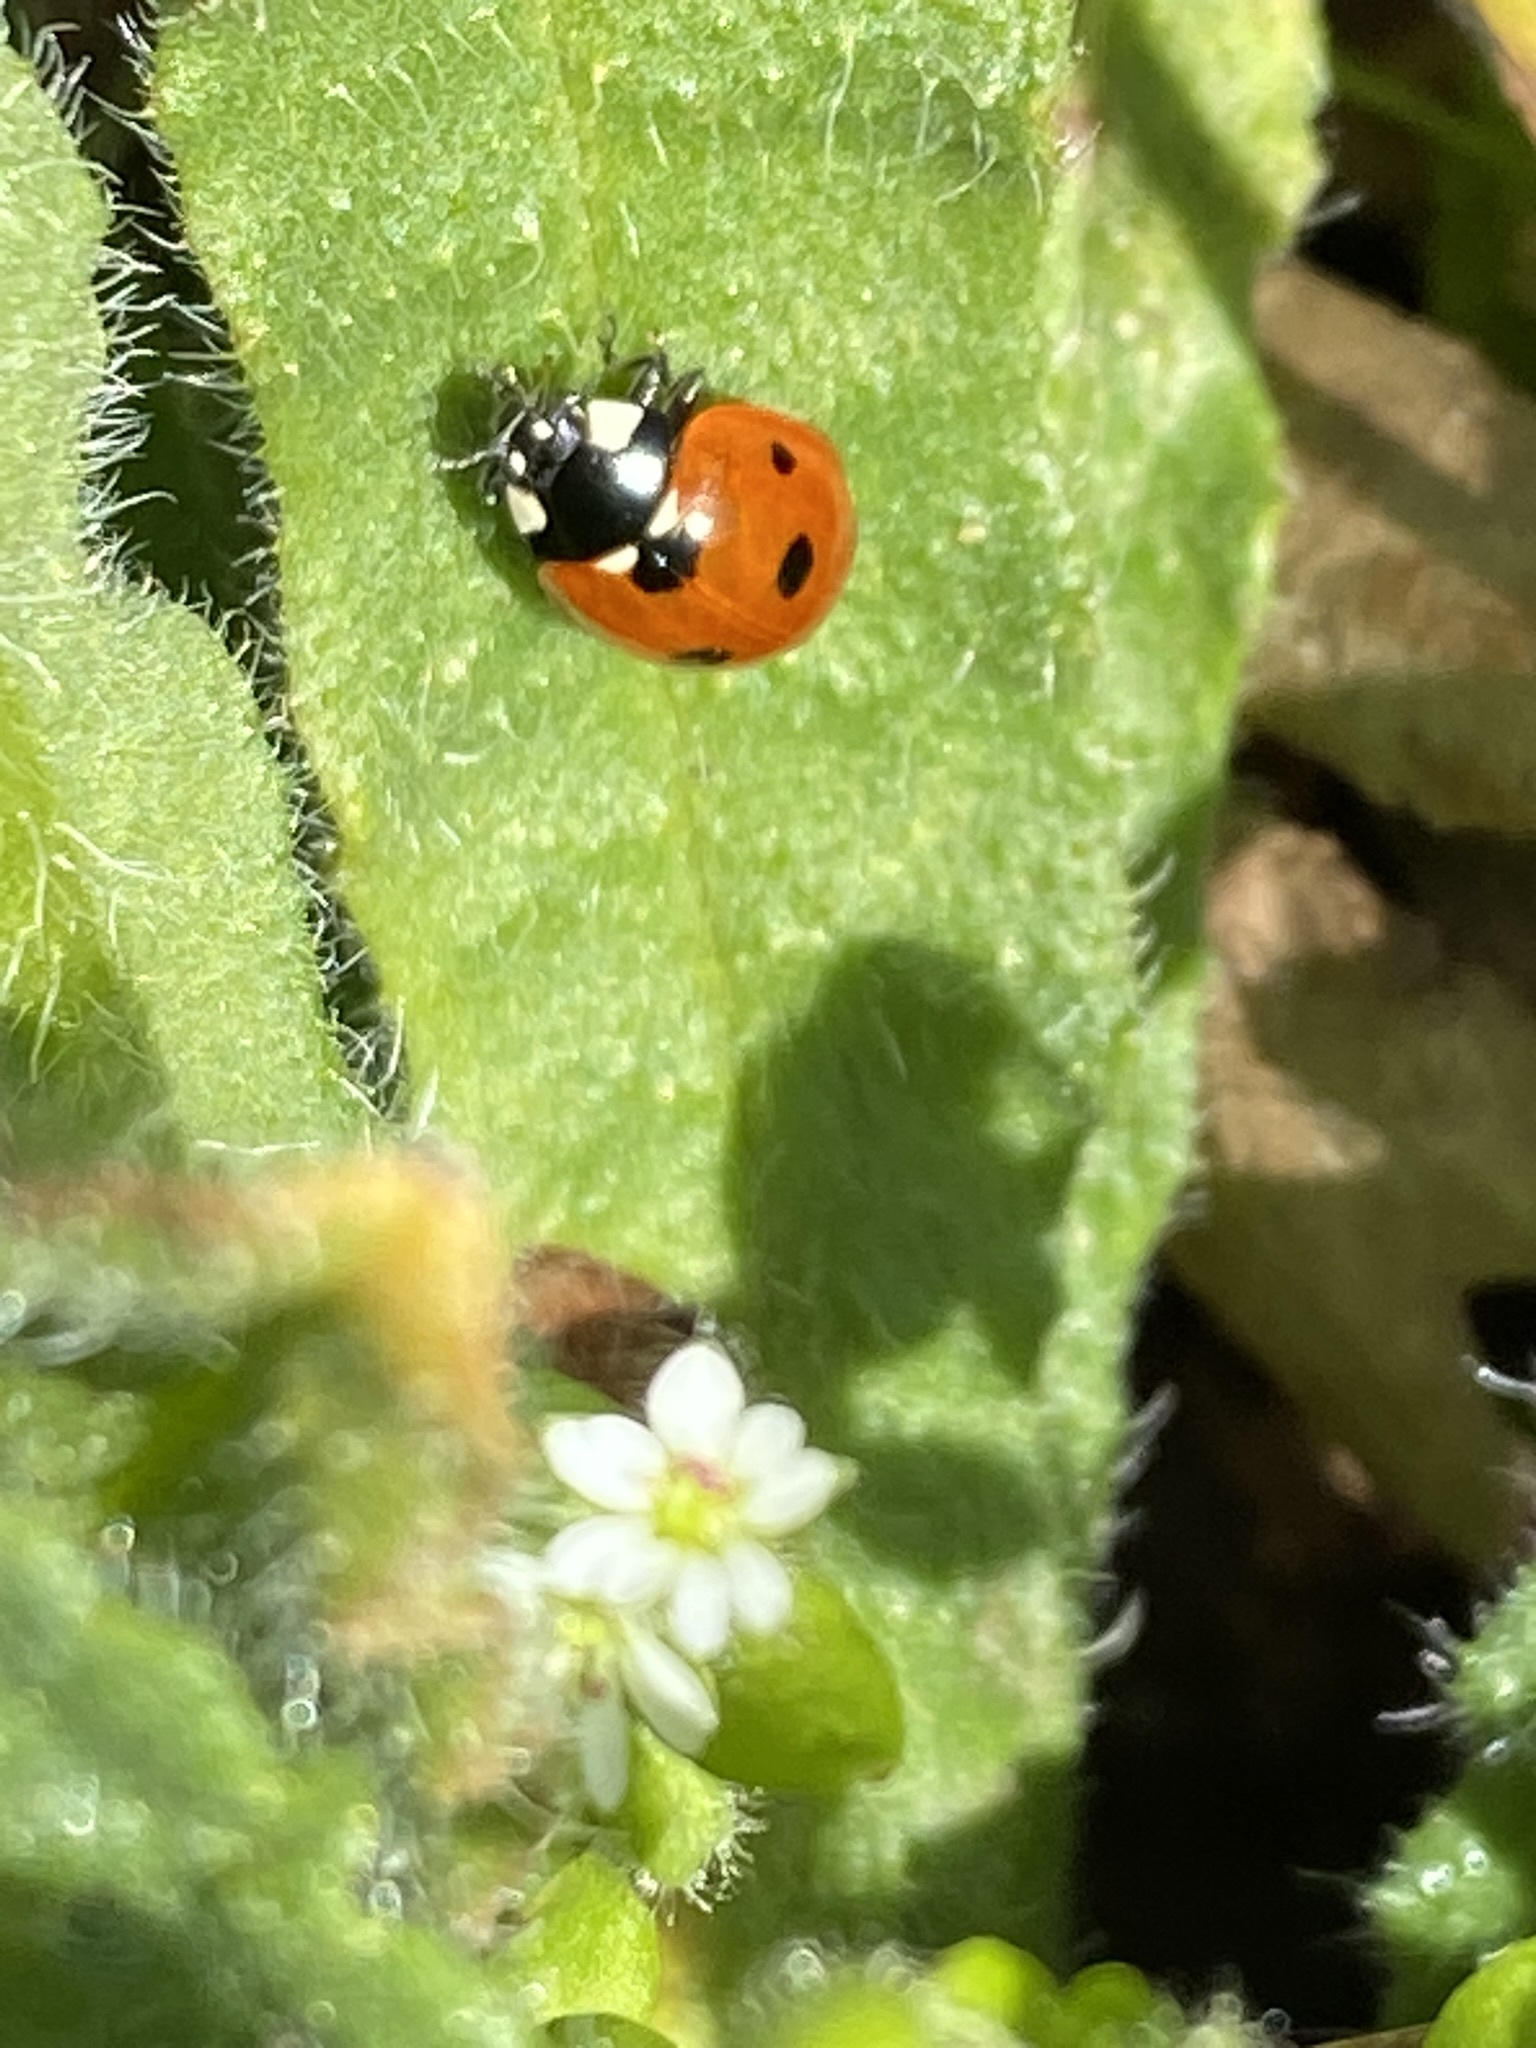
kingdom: Animalia
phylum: Arthropoda
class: Insecta
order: Coleoptera
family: Coccinellidae
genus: Coccinella
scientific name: Coccinella septempunctata
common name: Sevenspotted lady beetle
